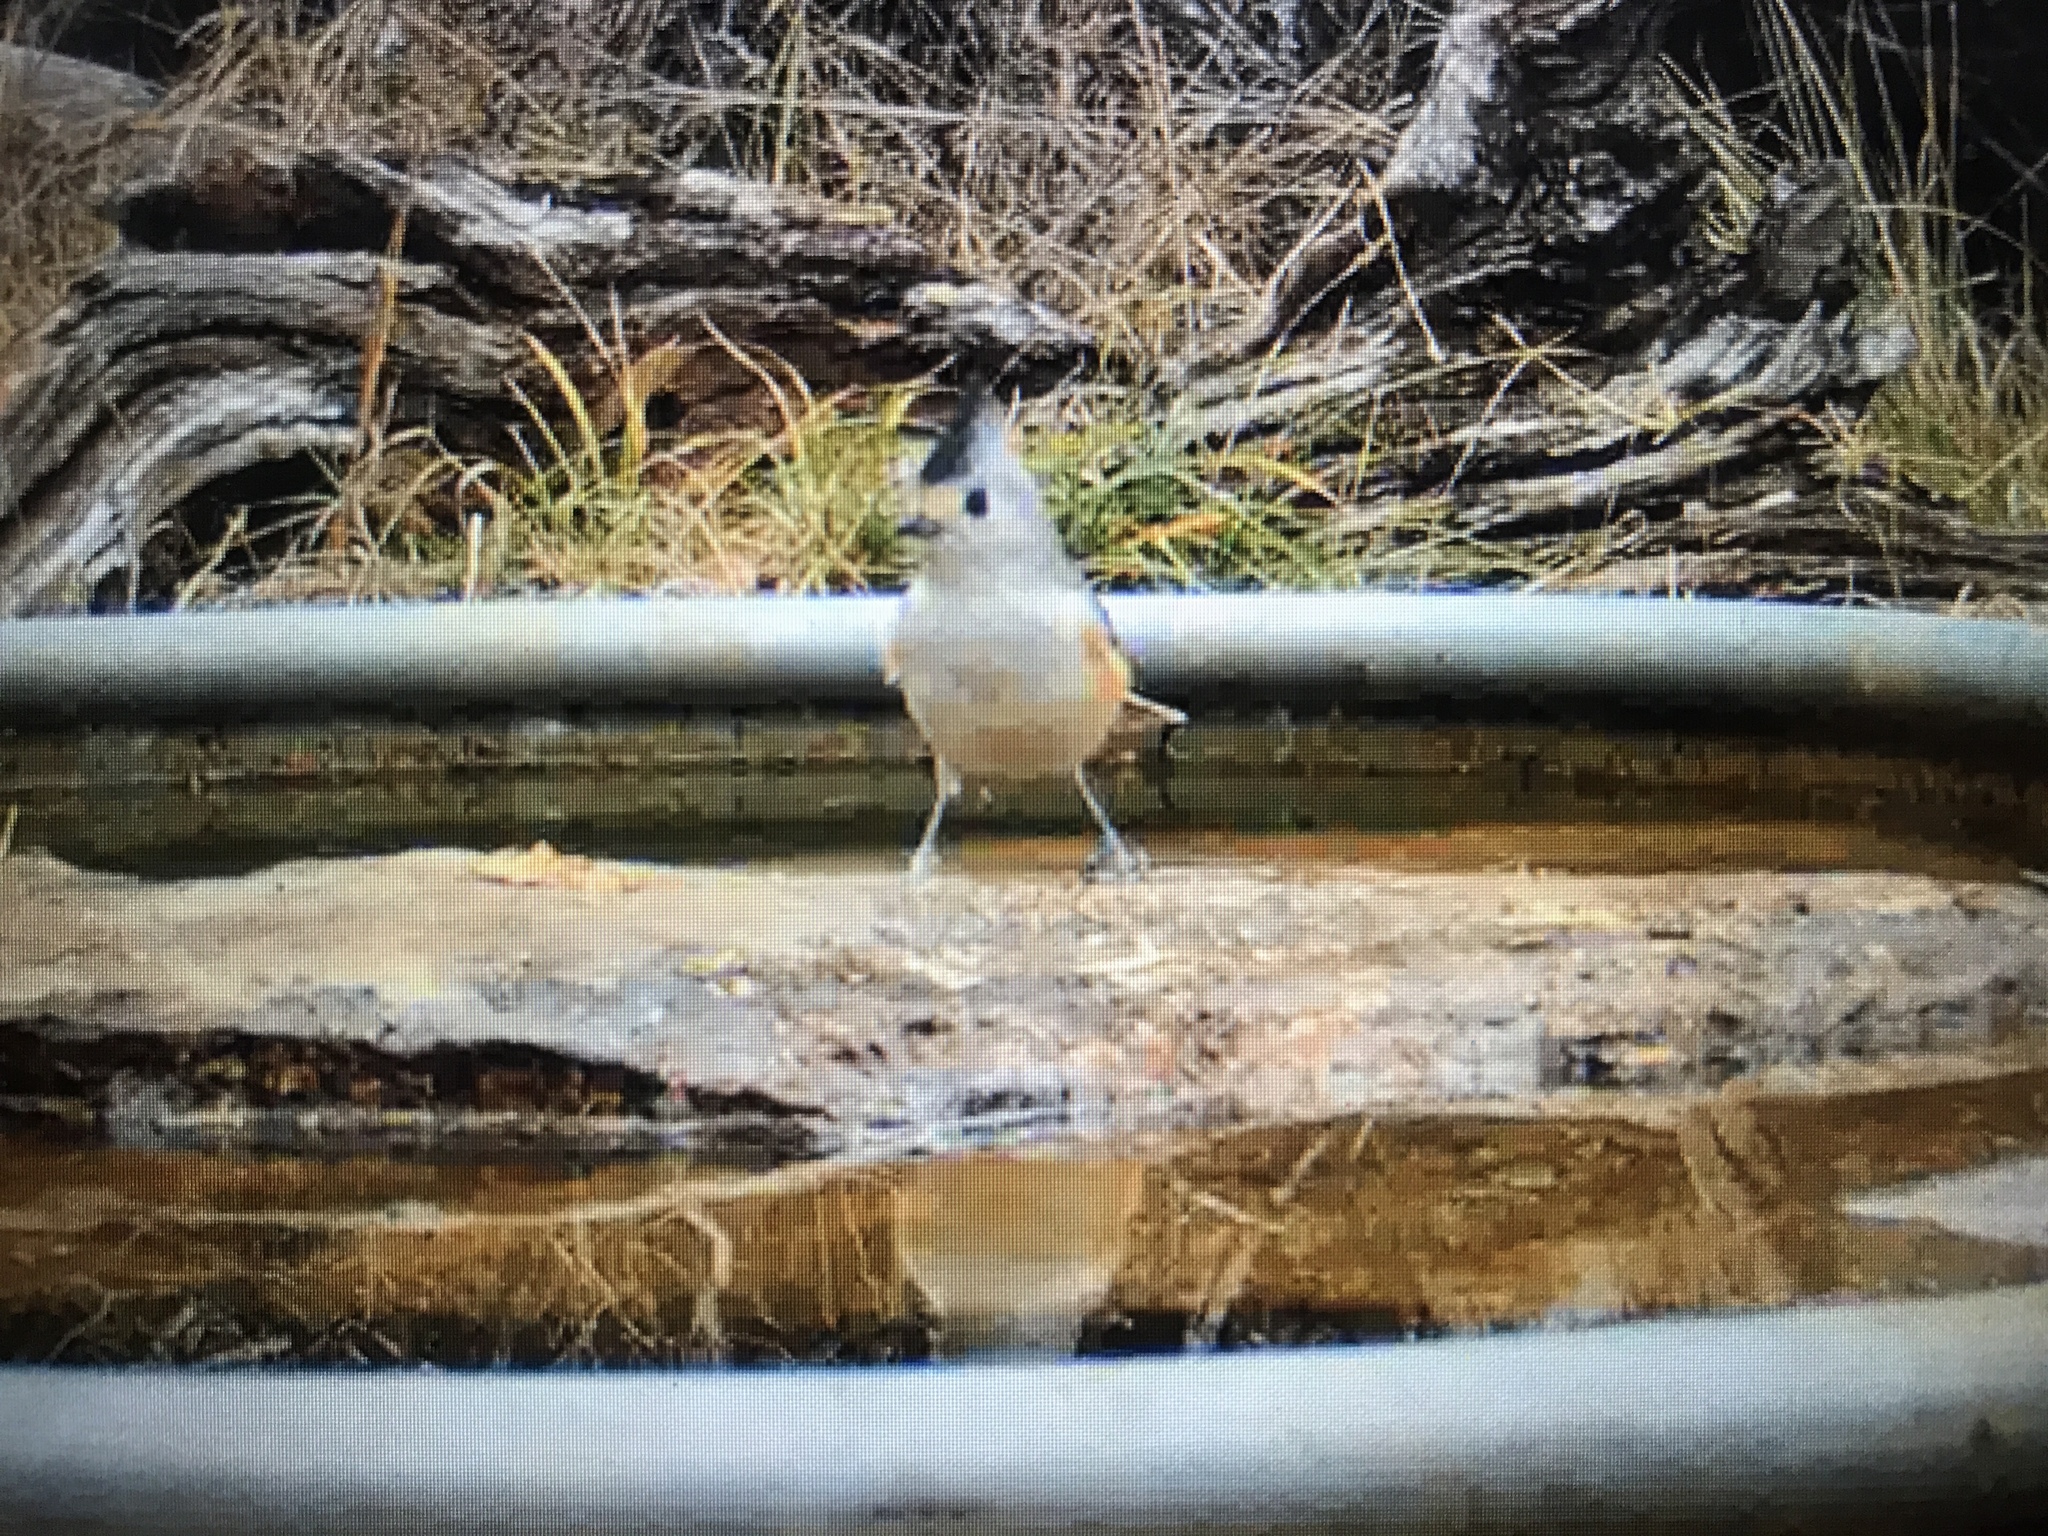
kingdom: Animalia
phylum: Chordata
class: Aves
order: Passeriformes
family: Paridae
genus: Baeolophus
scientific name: Baeolophus atricristatus
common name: Black-crested titmouse
